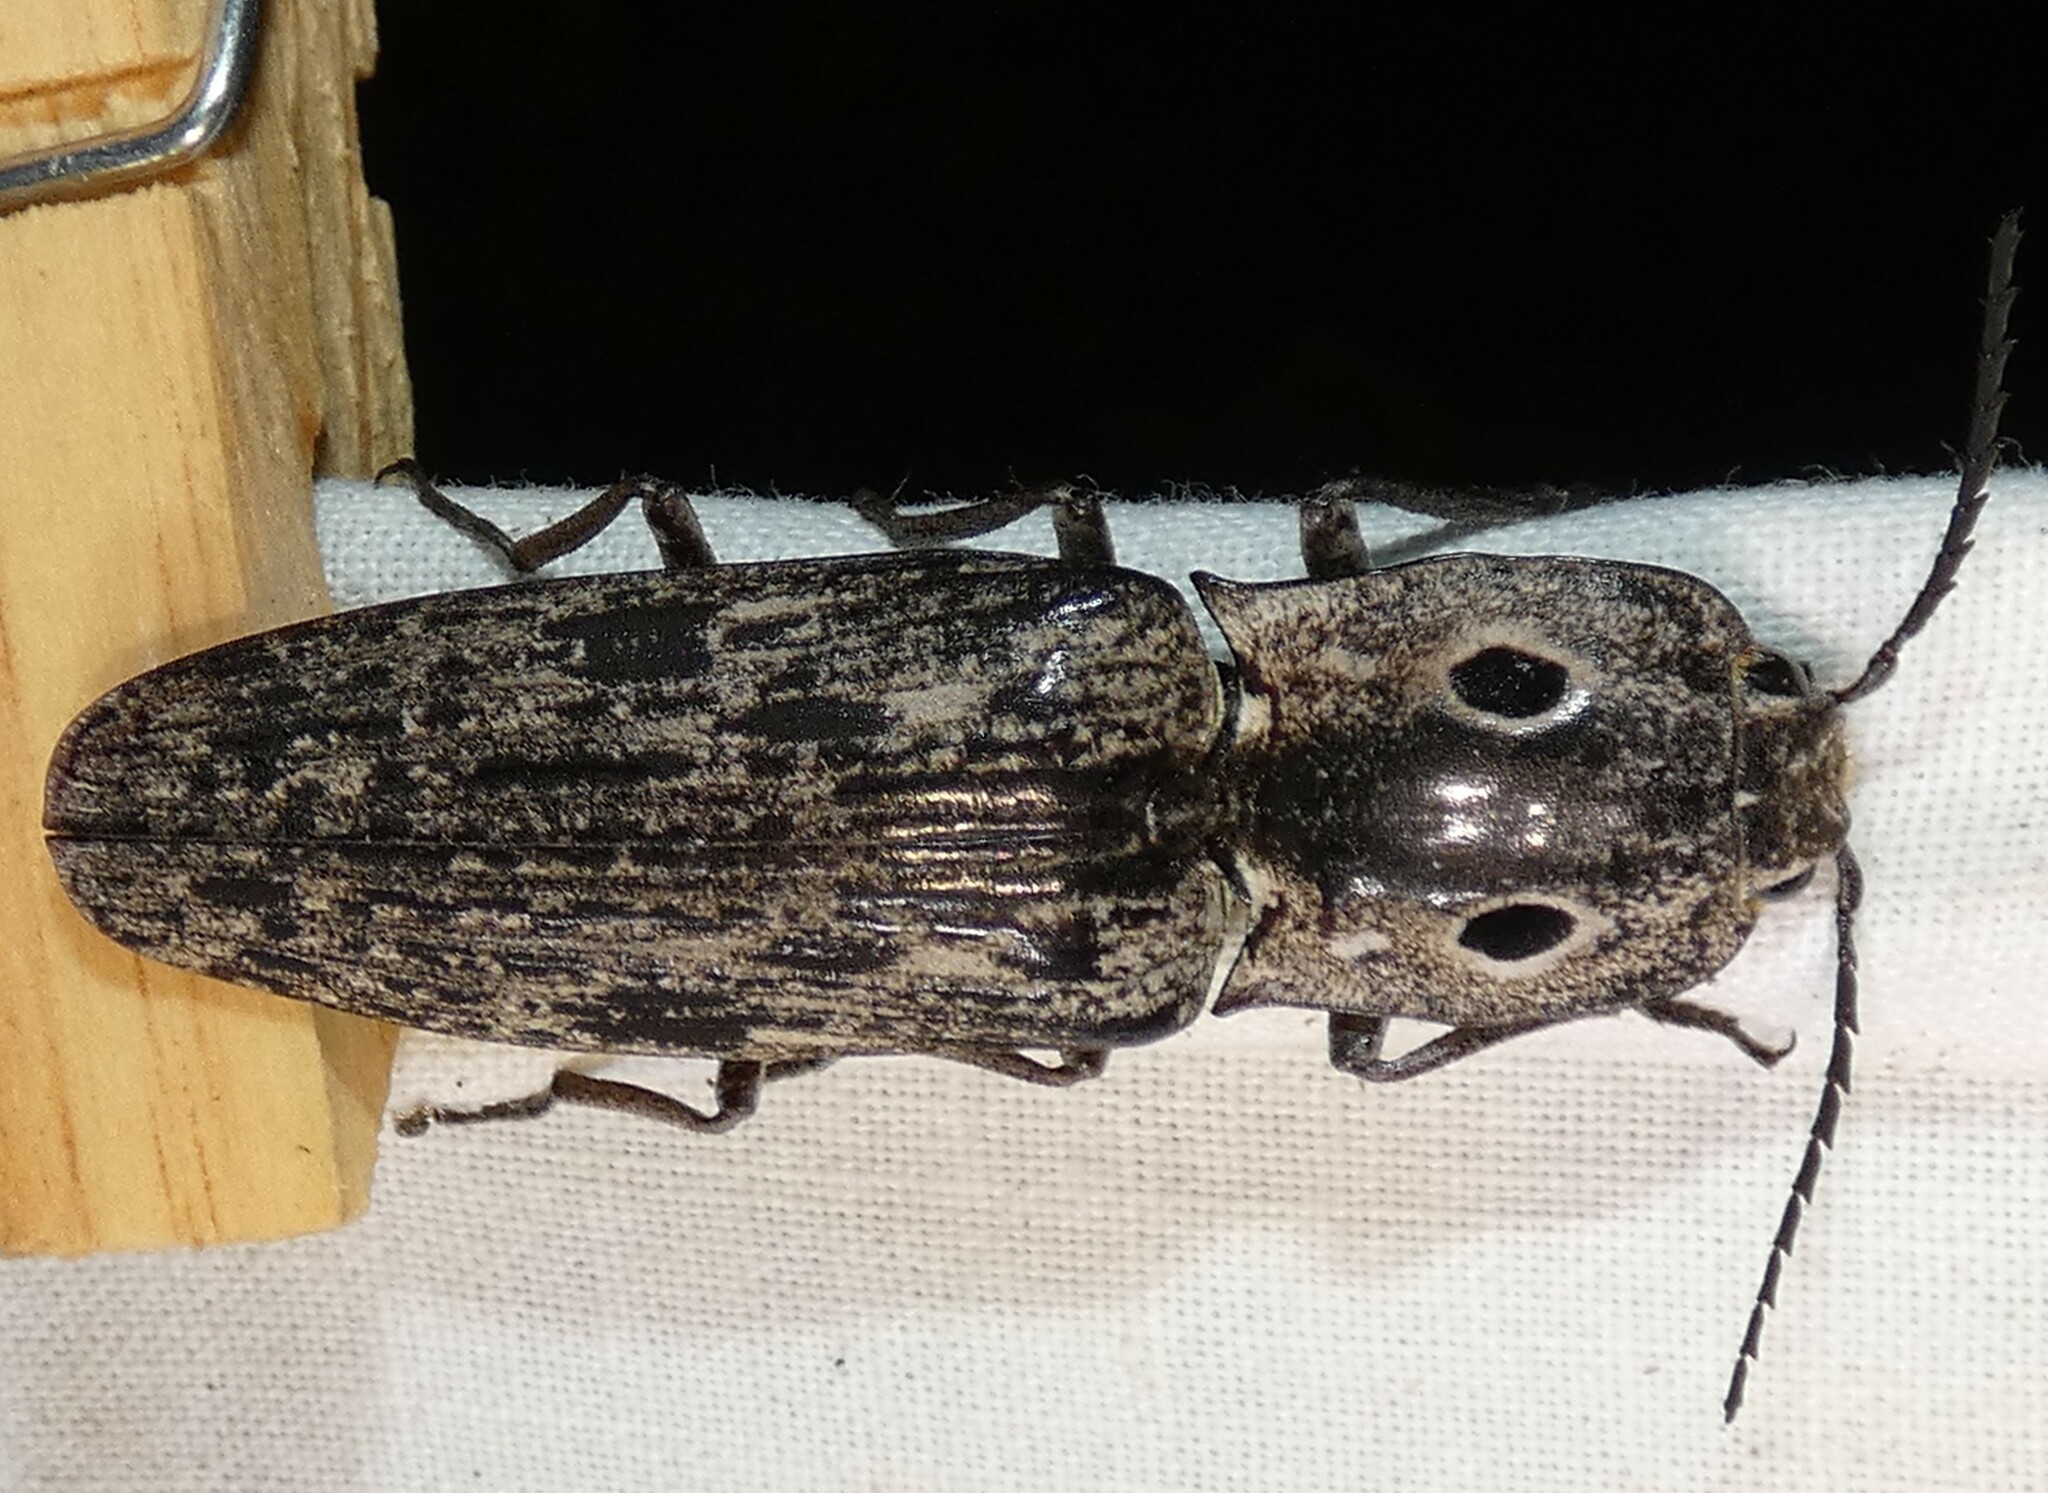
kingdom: Animalia
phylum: Arthropoda
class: Insecta
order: Coleoptera
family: Elateridae
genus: Alaus
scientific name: Alaus myops
